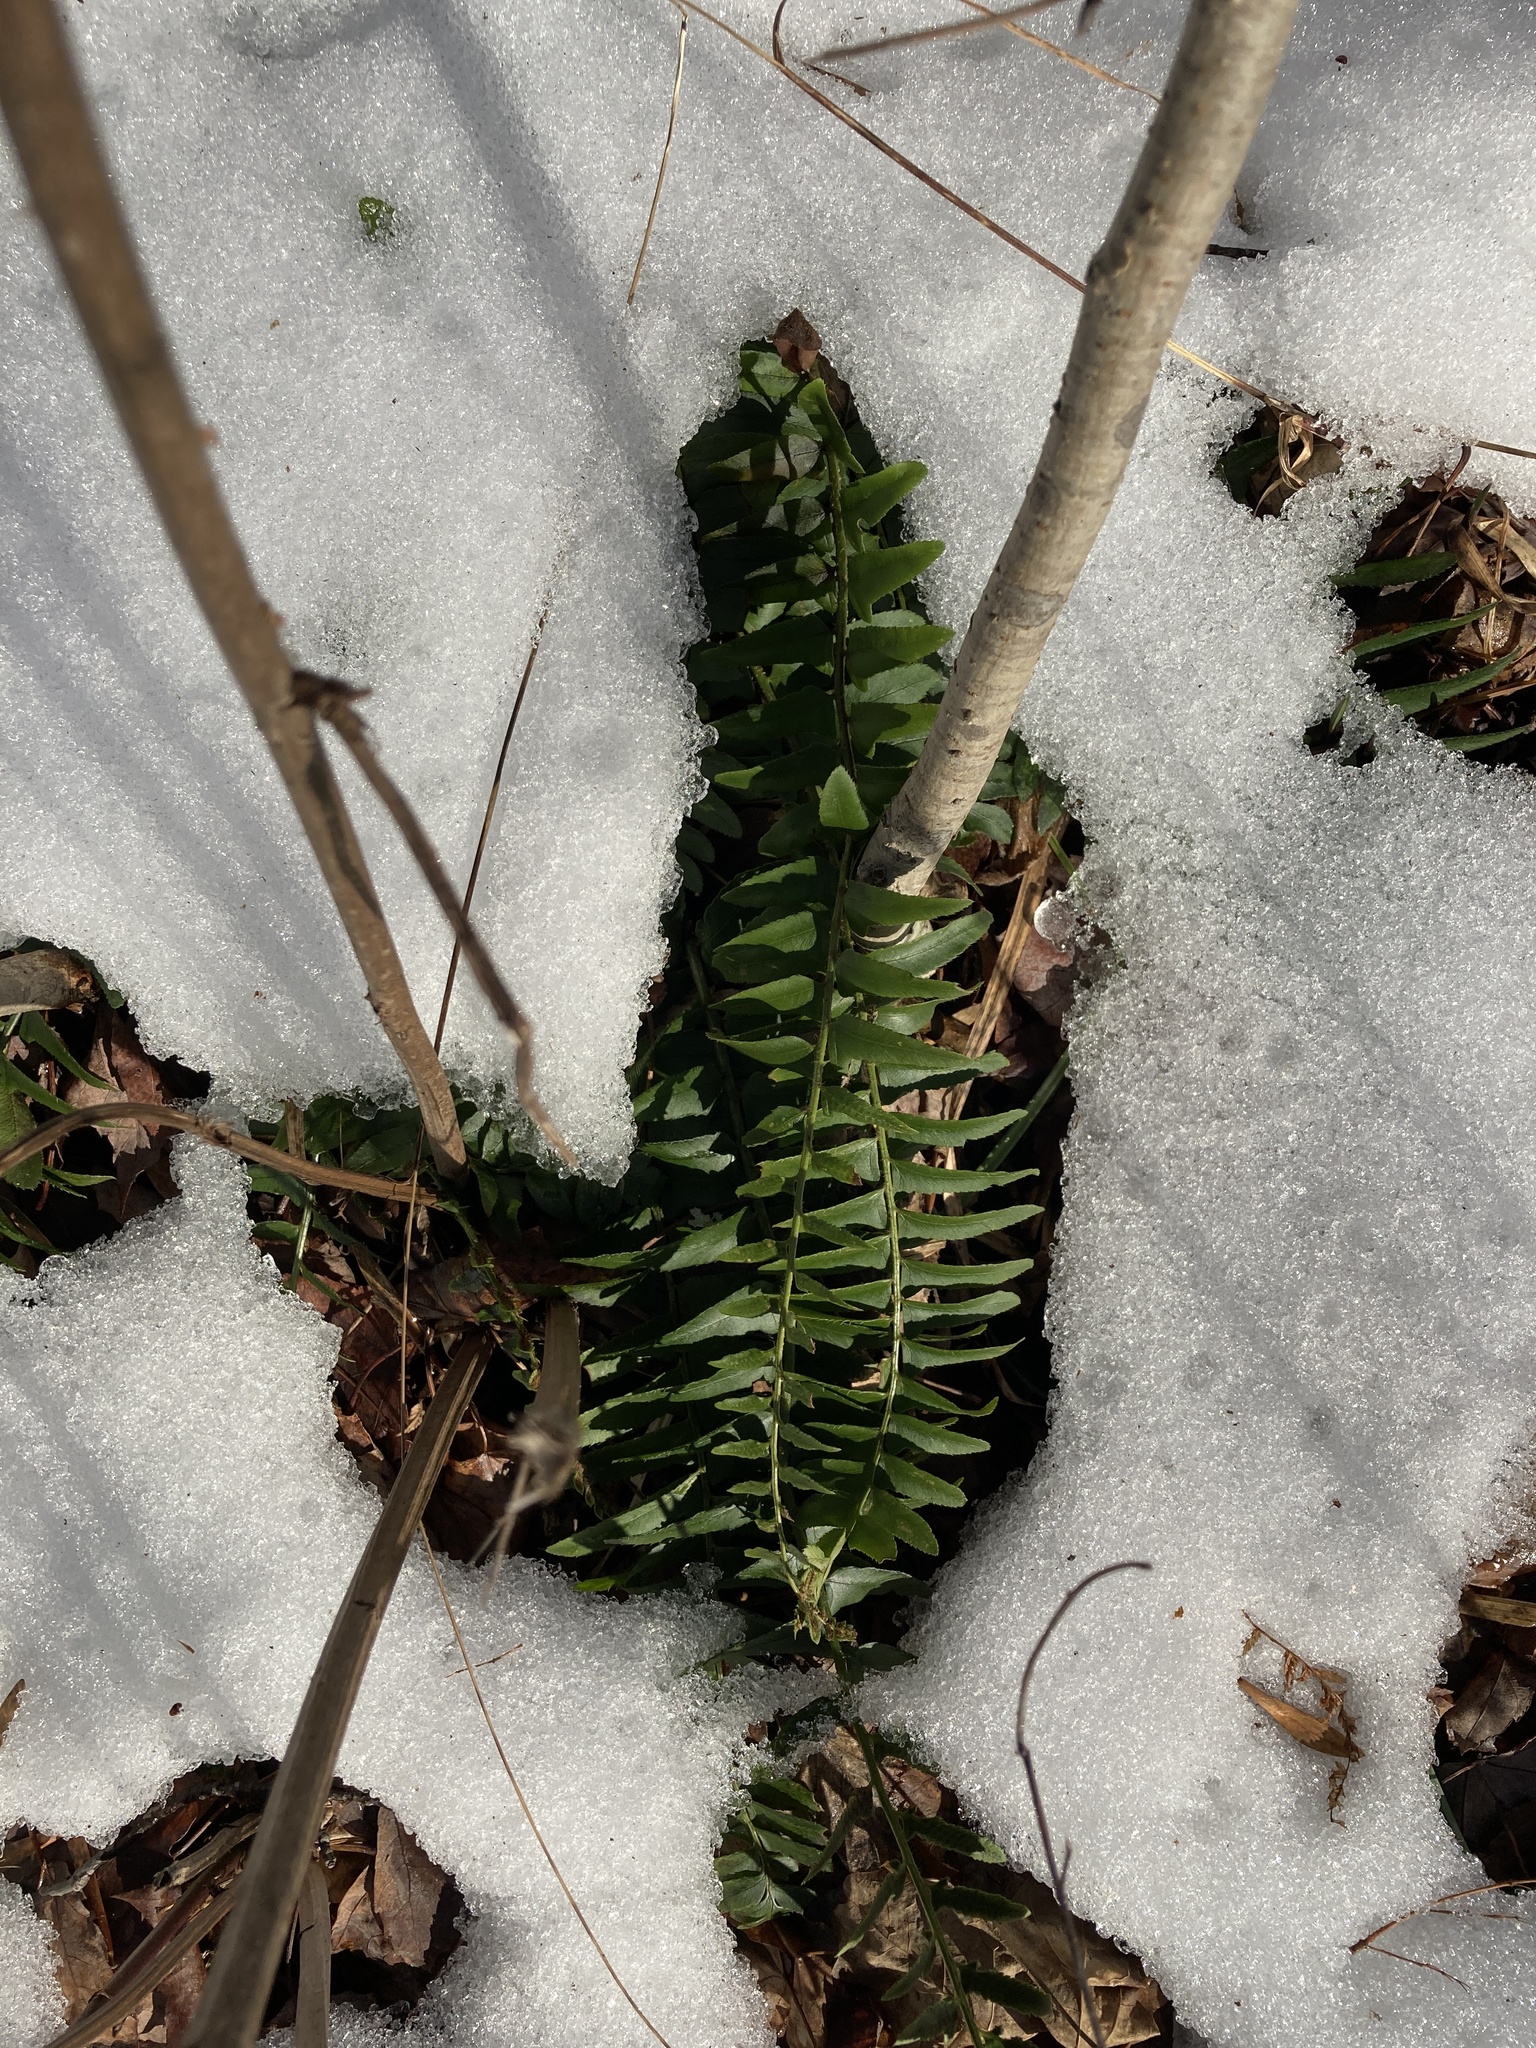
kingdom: Plantae
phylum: Tracheophyta
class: Polypodiopsida
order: Polypodiales
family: Dryopteridaceae
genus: Polystichum
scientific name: Polystichum acrostichoides
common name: Christmas fern
